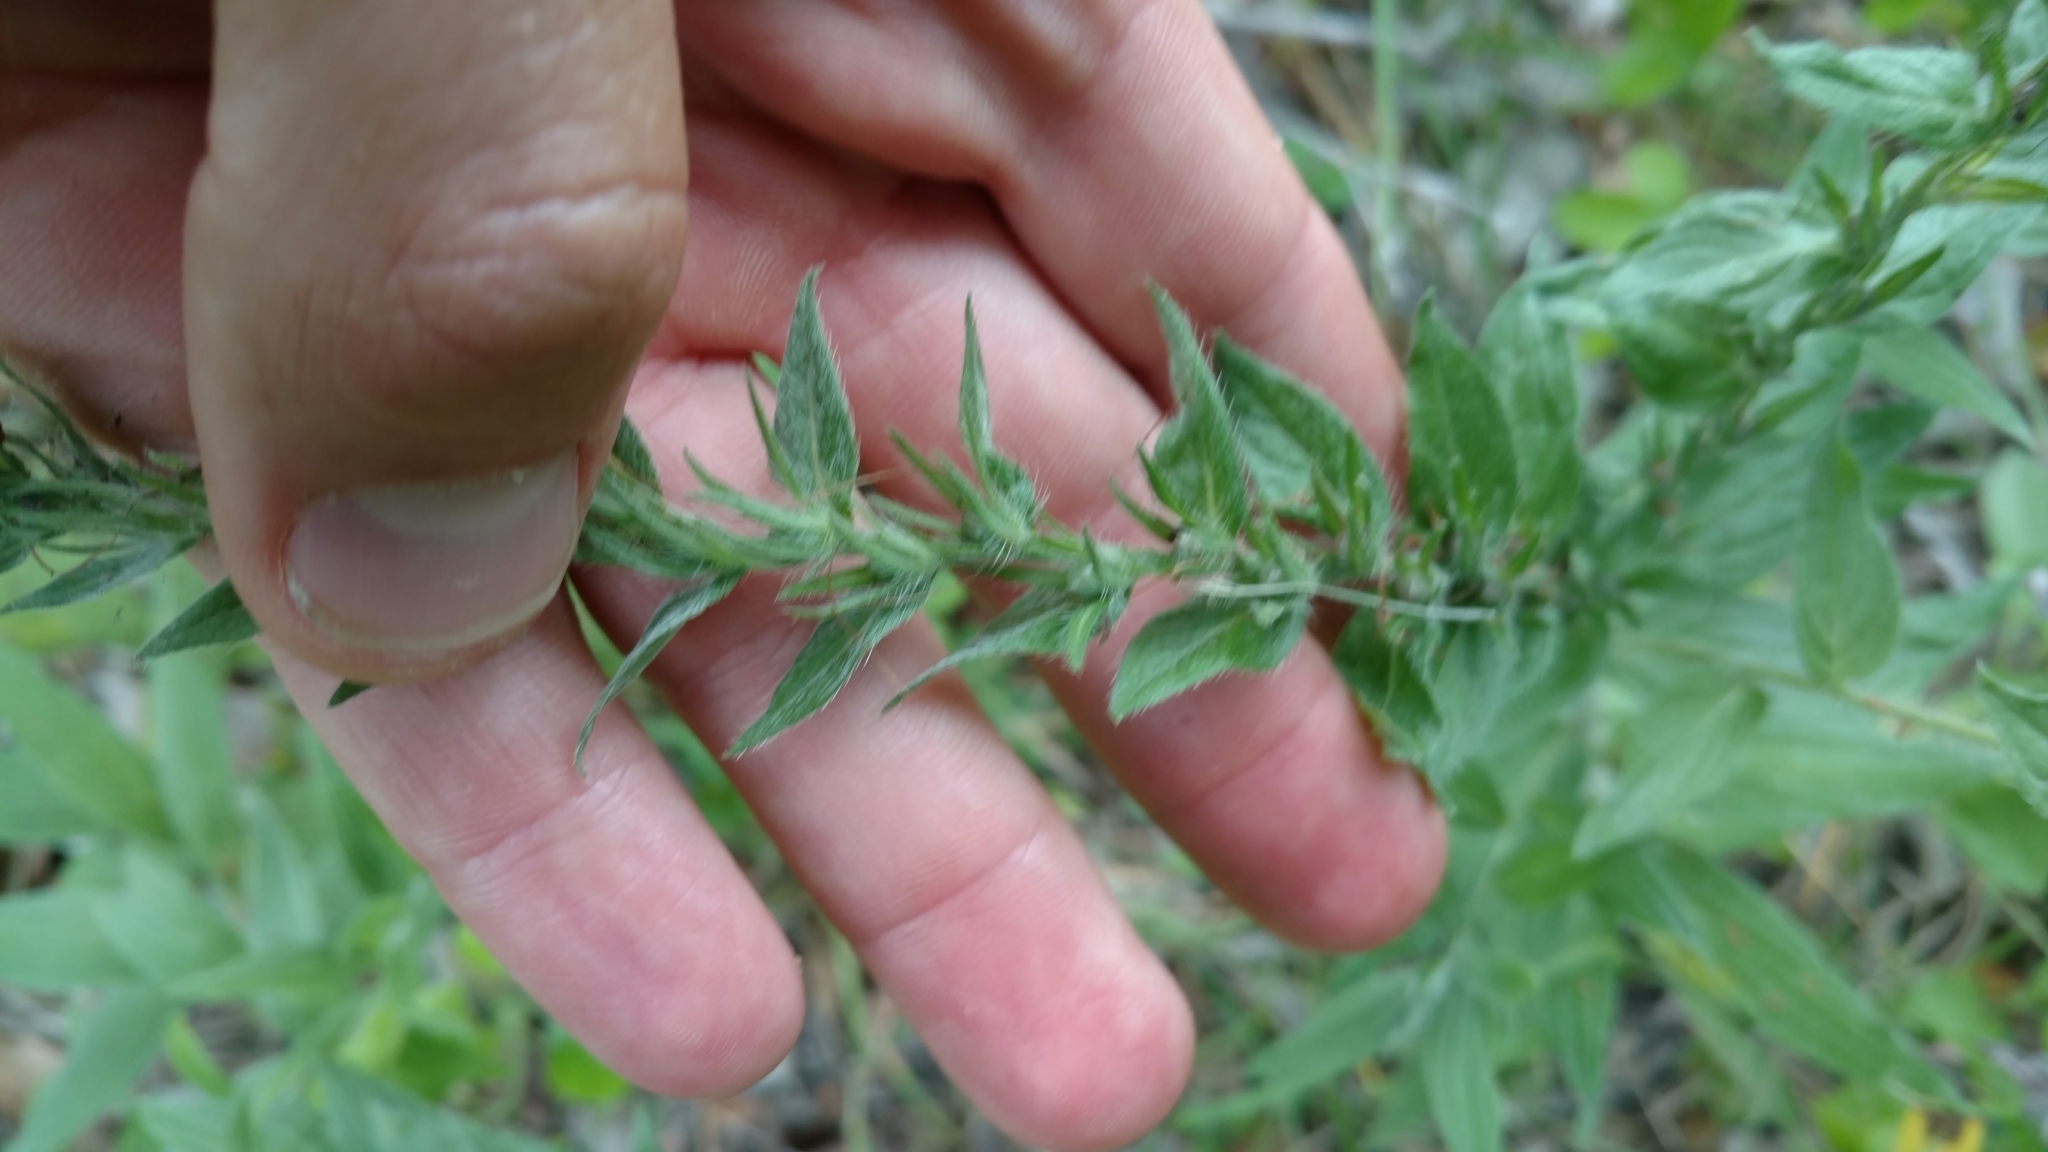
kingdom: Plantae
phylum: Tracheophyta
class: Magnoliopsida
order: Boraginales
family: Boraginaceae
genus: Lithospermum
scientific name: Lithospermum caroliniense
